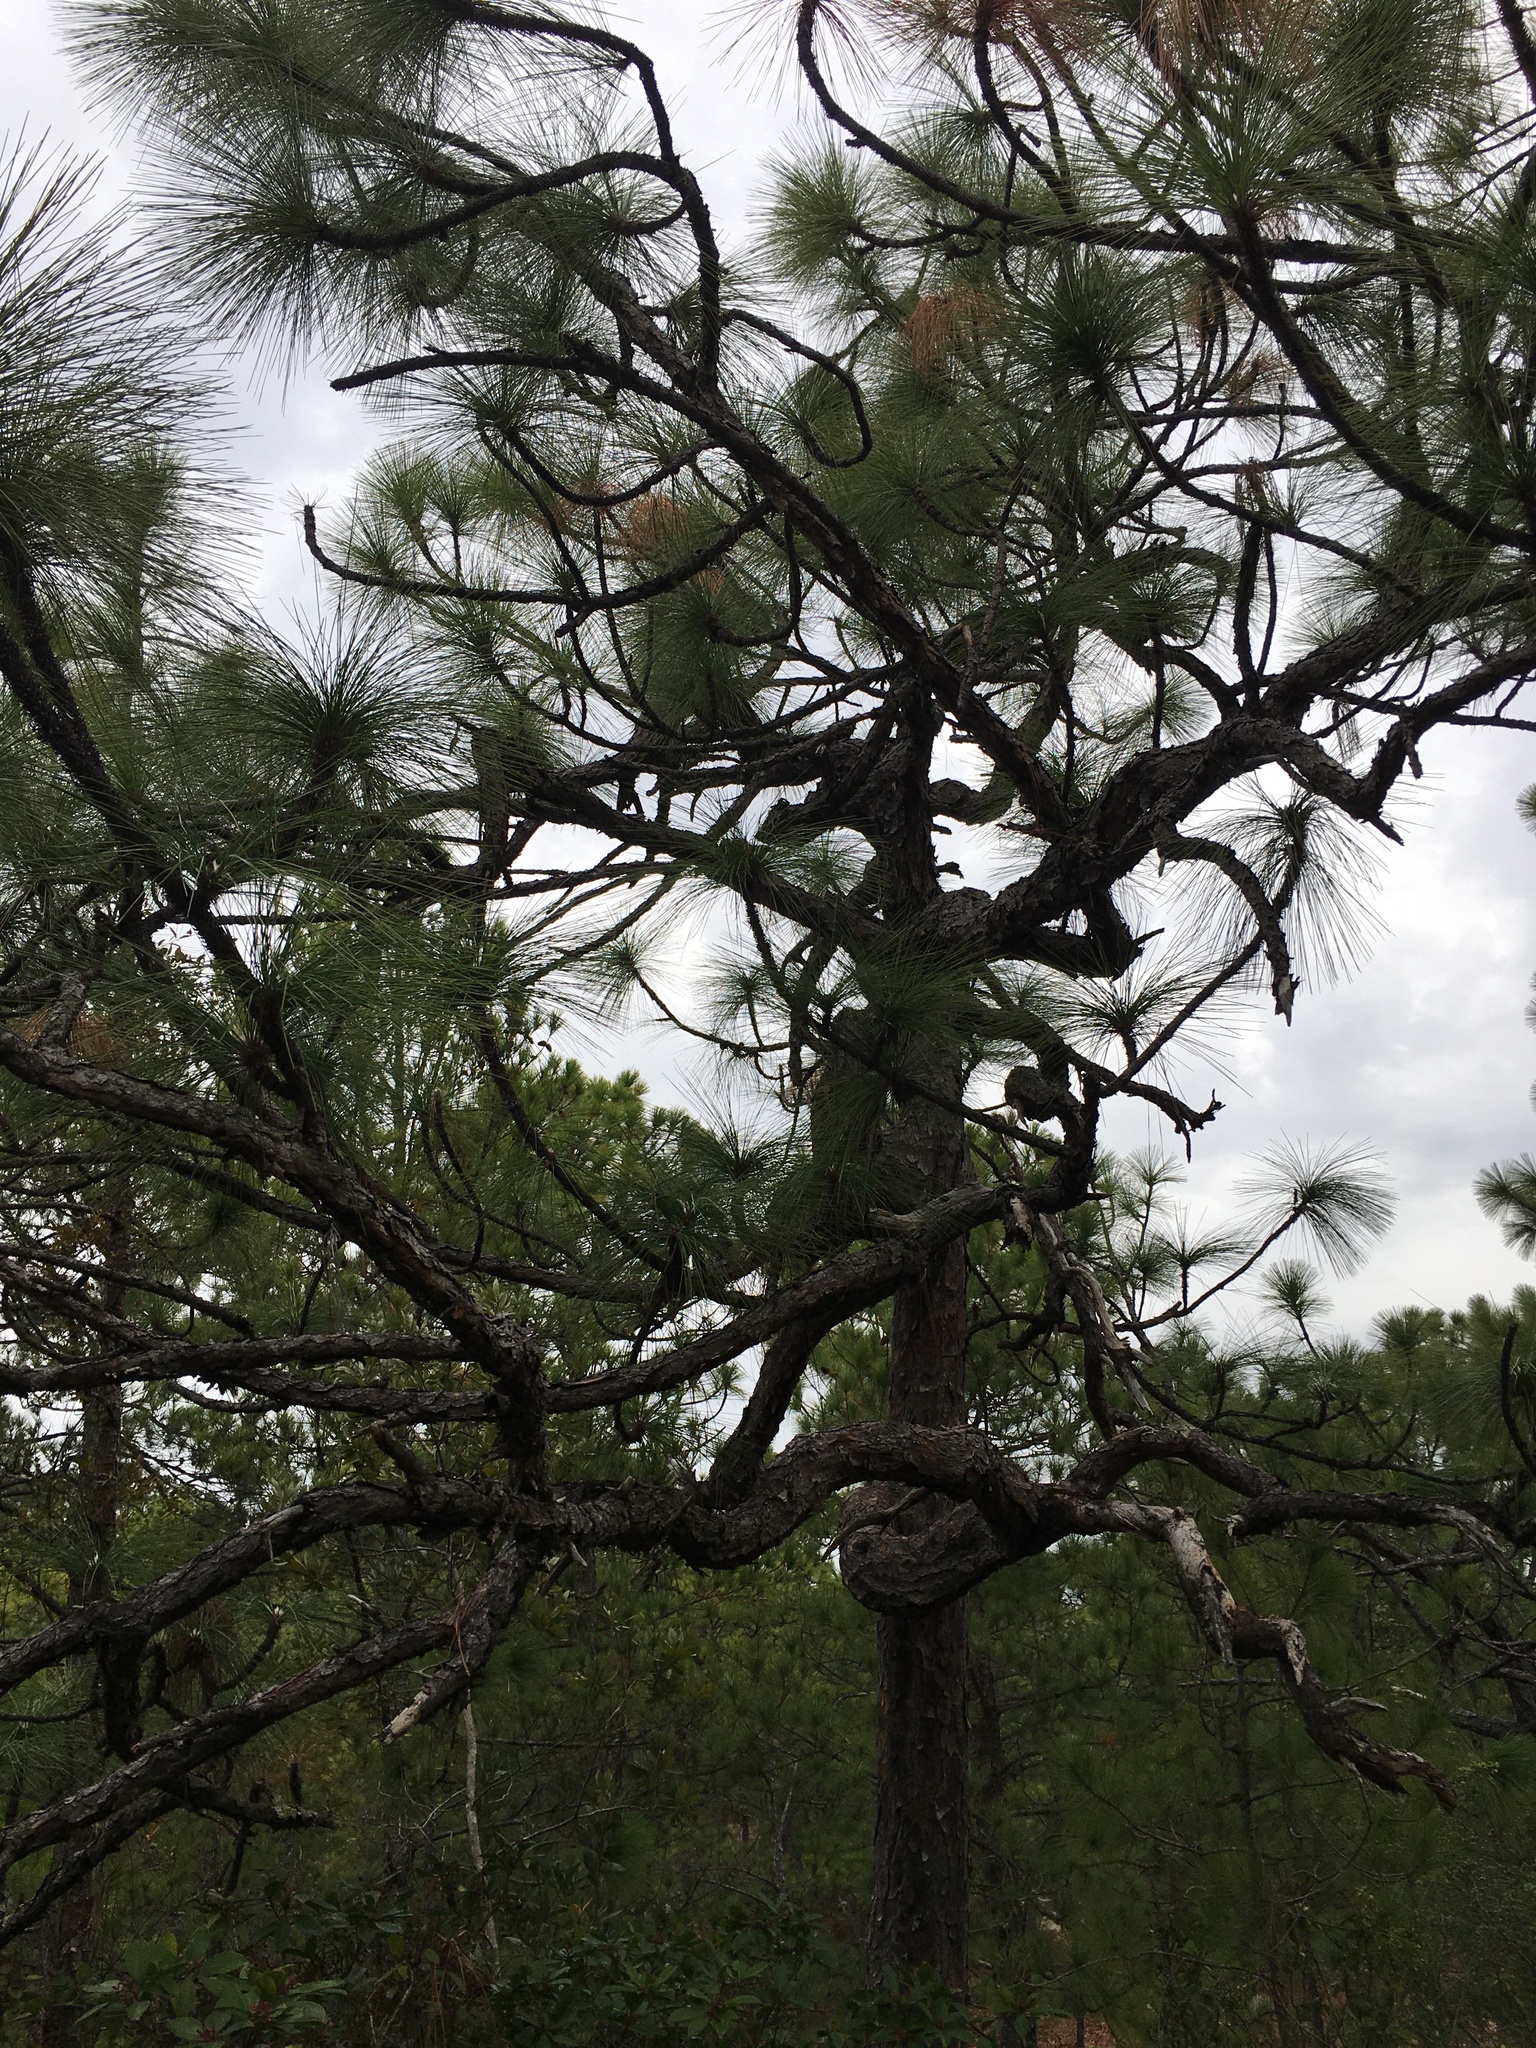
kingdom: Plantae
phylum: Tracheophyta
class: Pinopsida
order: Pinales
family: Pinaceae
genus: Pinus
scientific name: Pinus palustris
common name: Longleaf pine
